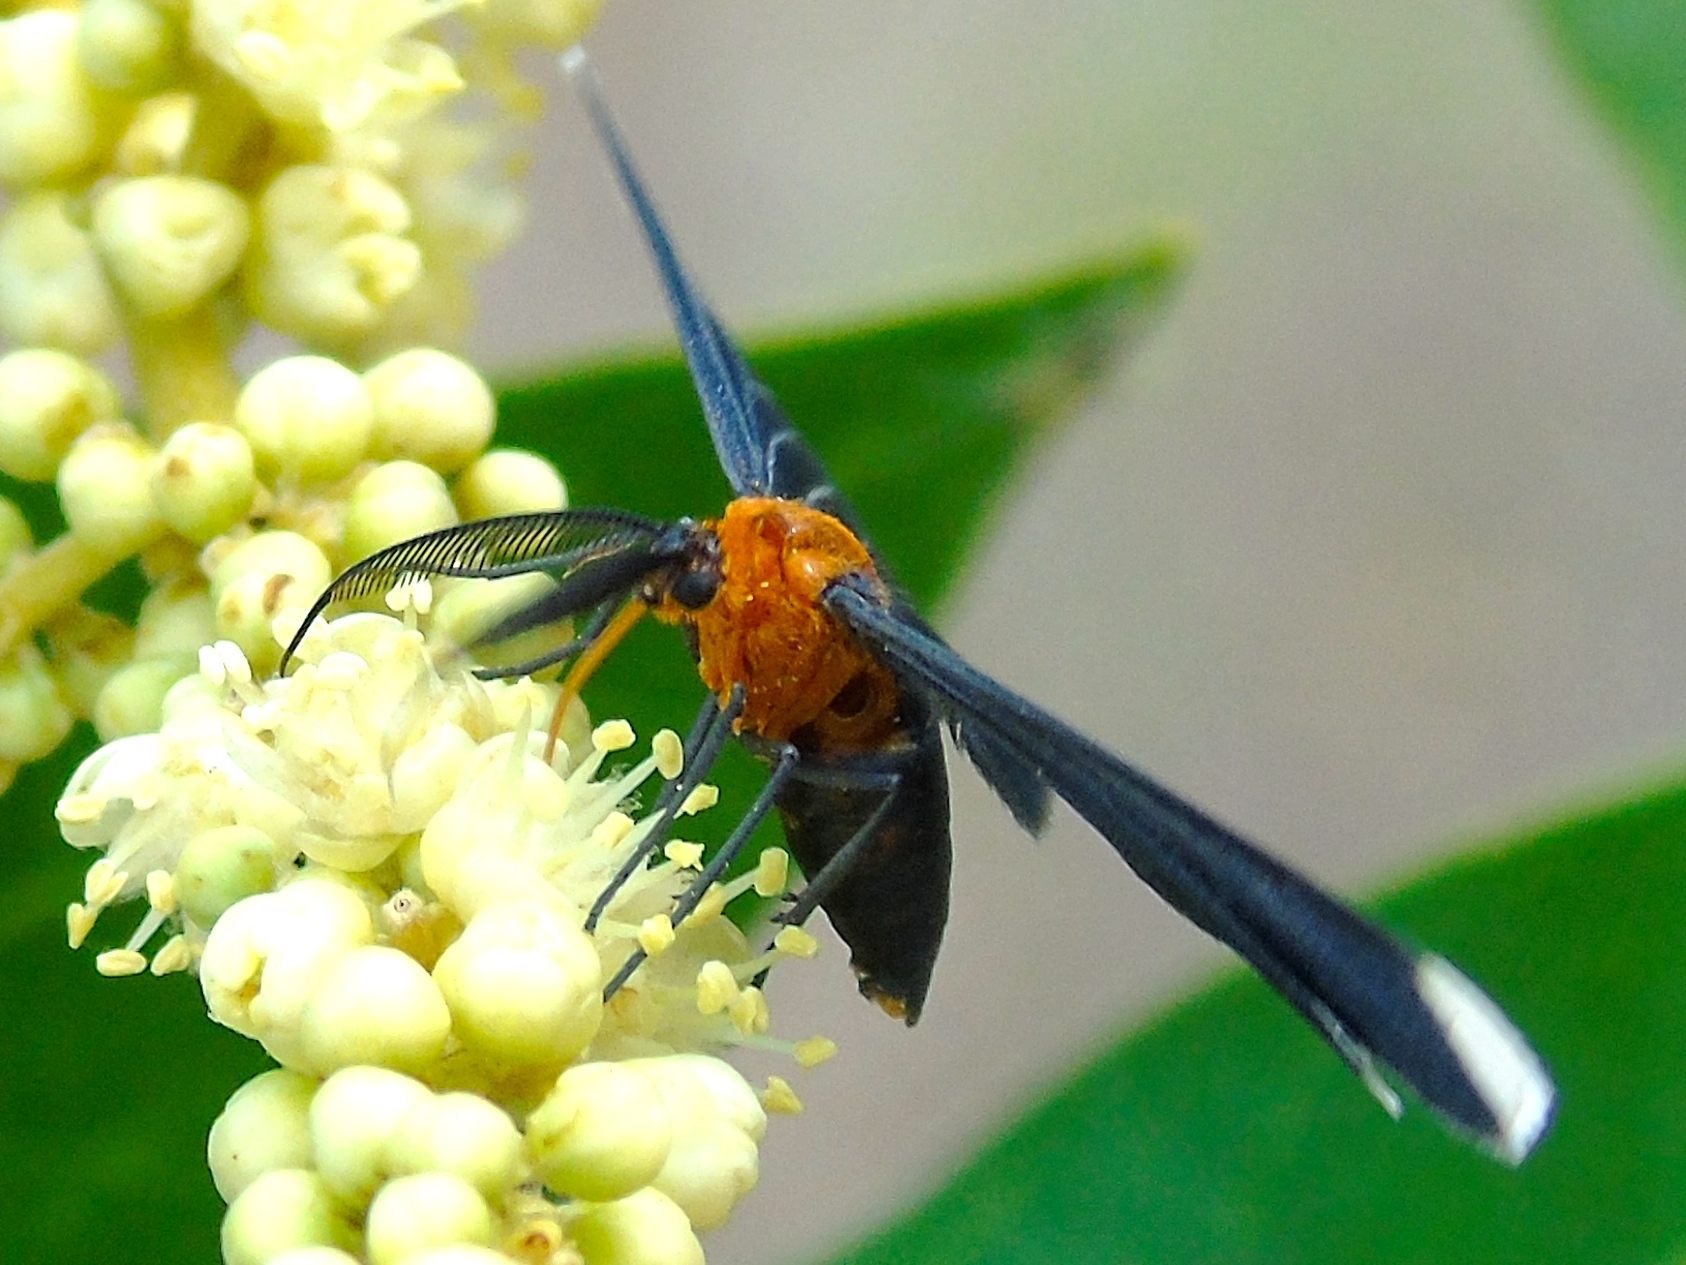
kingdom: Animalia
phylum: Arthropoda
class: Insecta
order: Lepidoptera
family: Geometridae
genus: Melanchroia
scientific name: Melanchroia chephise
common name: White-tipped black
